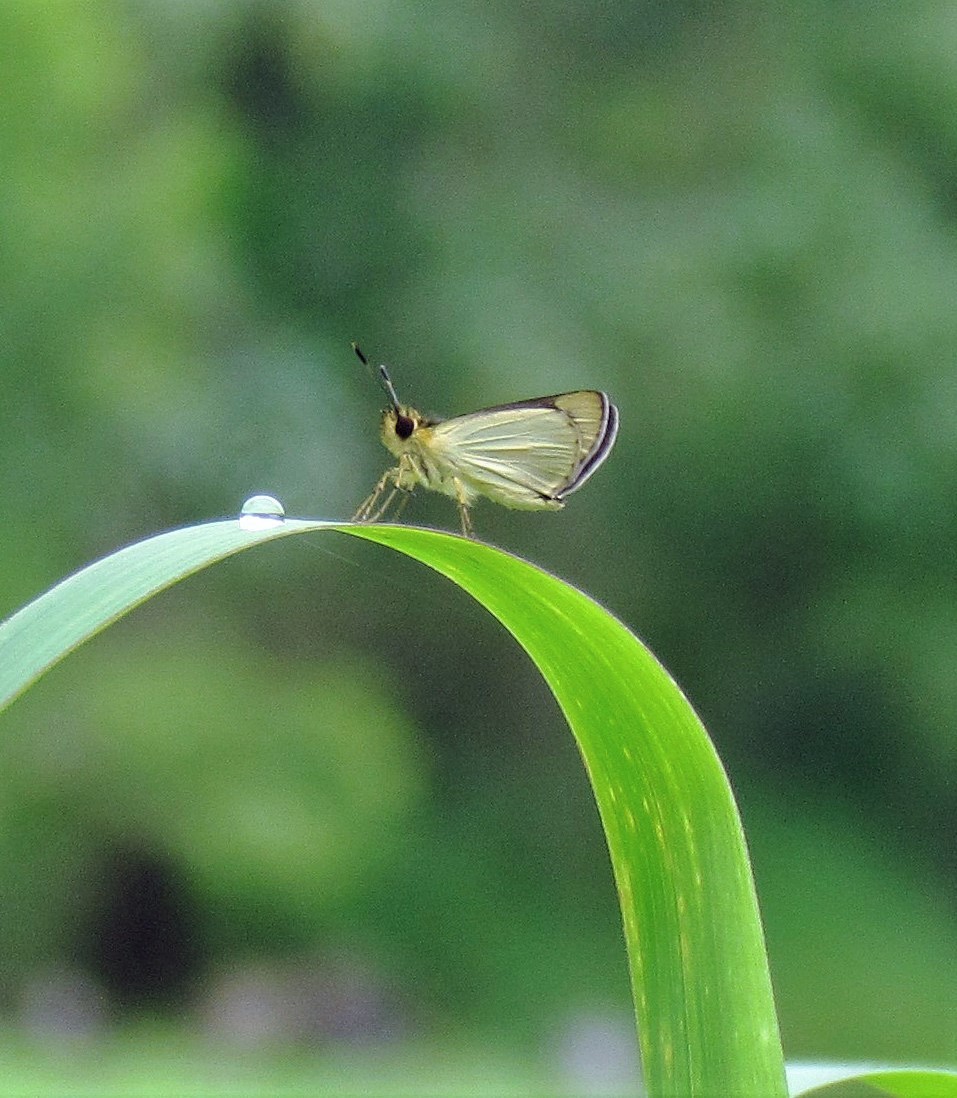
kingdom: Animalia
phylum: Arthropoda
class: Insecta
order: Lepidoptera
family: Hesperiidae
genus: Dalla
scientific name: Dalla diraspes
